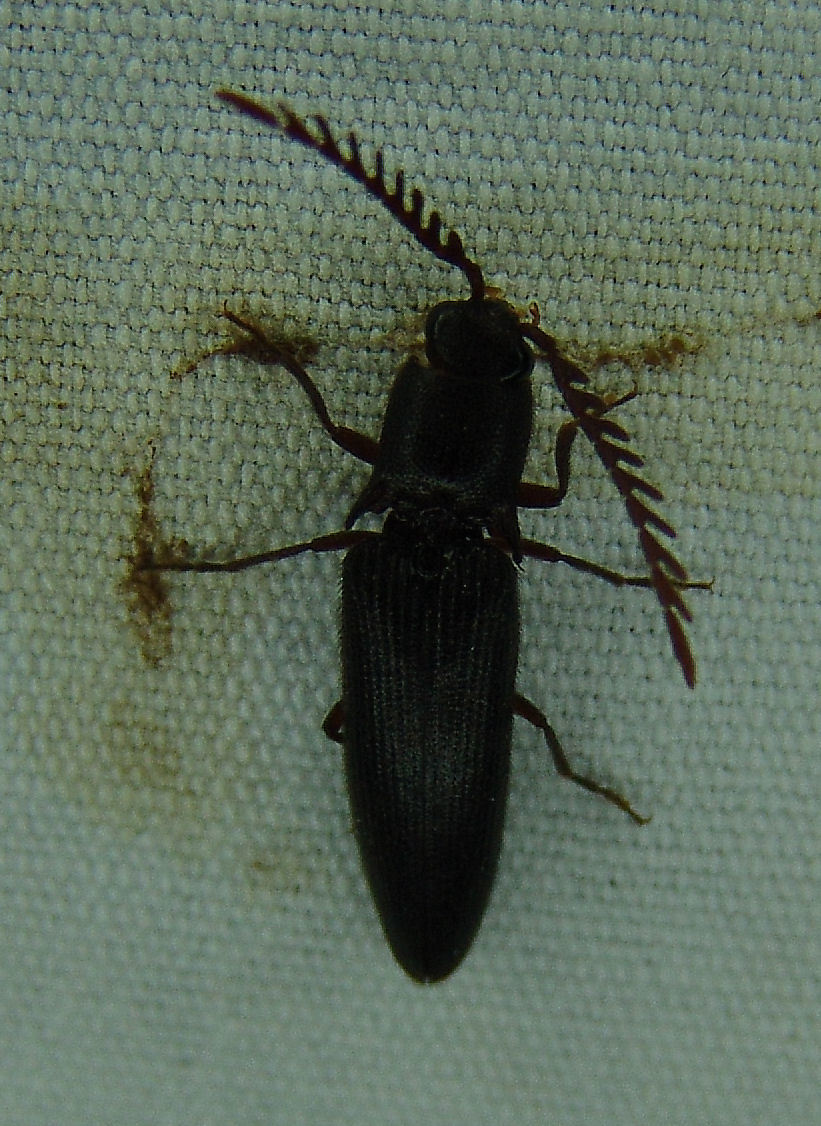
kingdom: Animalia
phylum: Arthropoda
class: Insecta
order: Coleoptera
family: Elateridae
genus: Dicrepidius
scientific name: Dicrepidius corvinus
